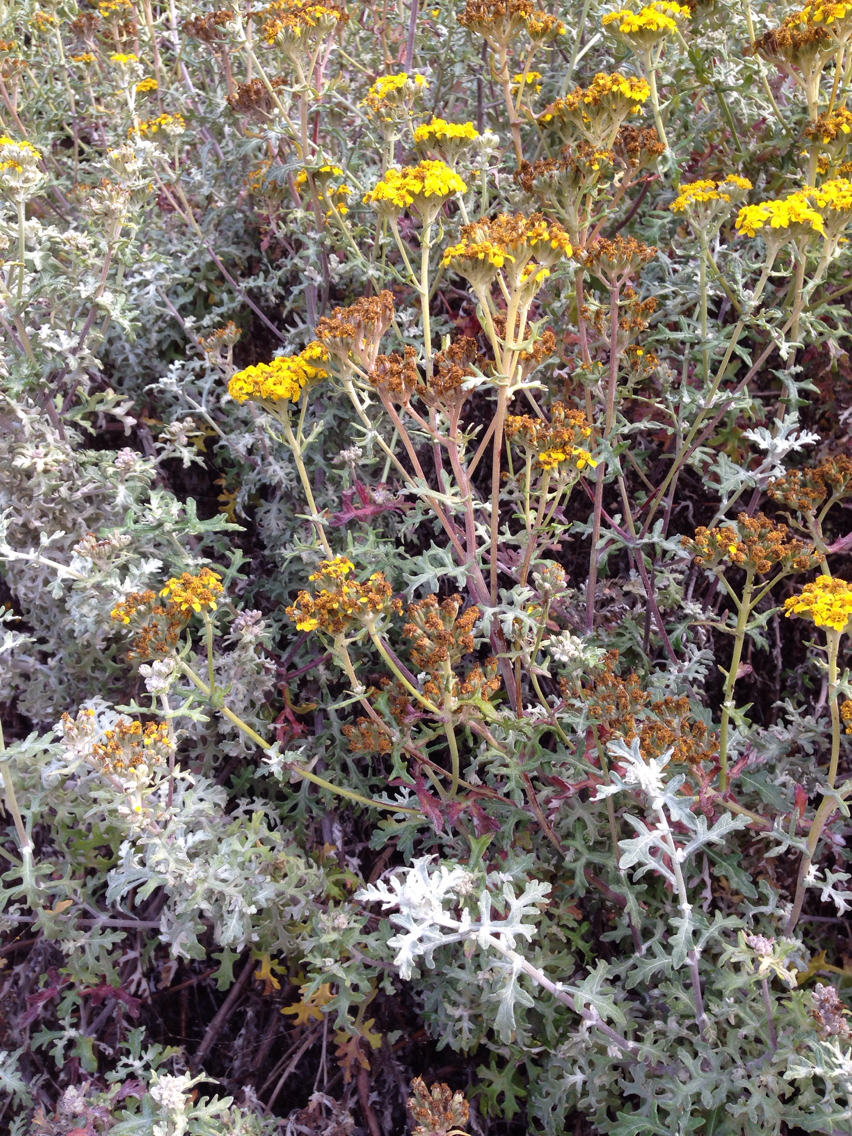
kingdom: Plantae
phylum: Tracheophyta
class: Magnoliopsida
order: Asterales
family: Asteraceae
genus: Eriophyllum
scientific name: Eriophyllum staechadifolium
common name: Lizardtail
